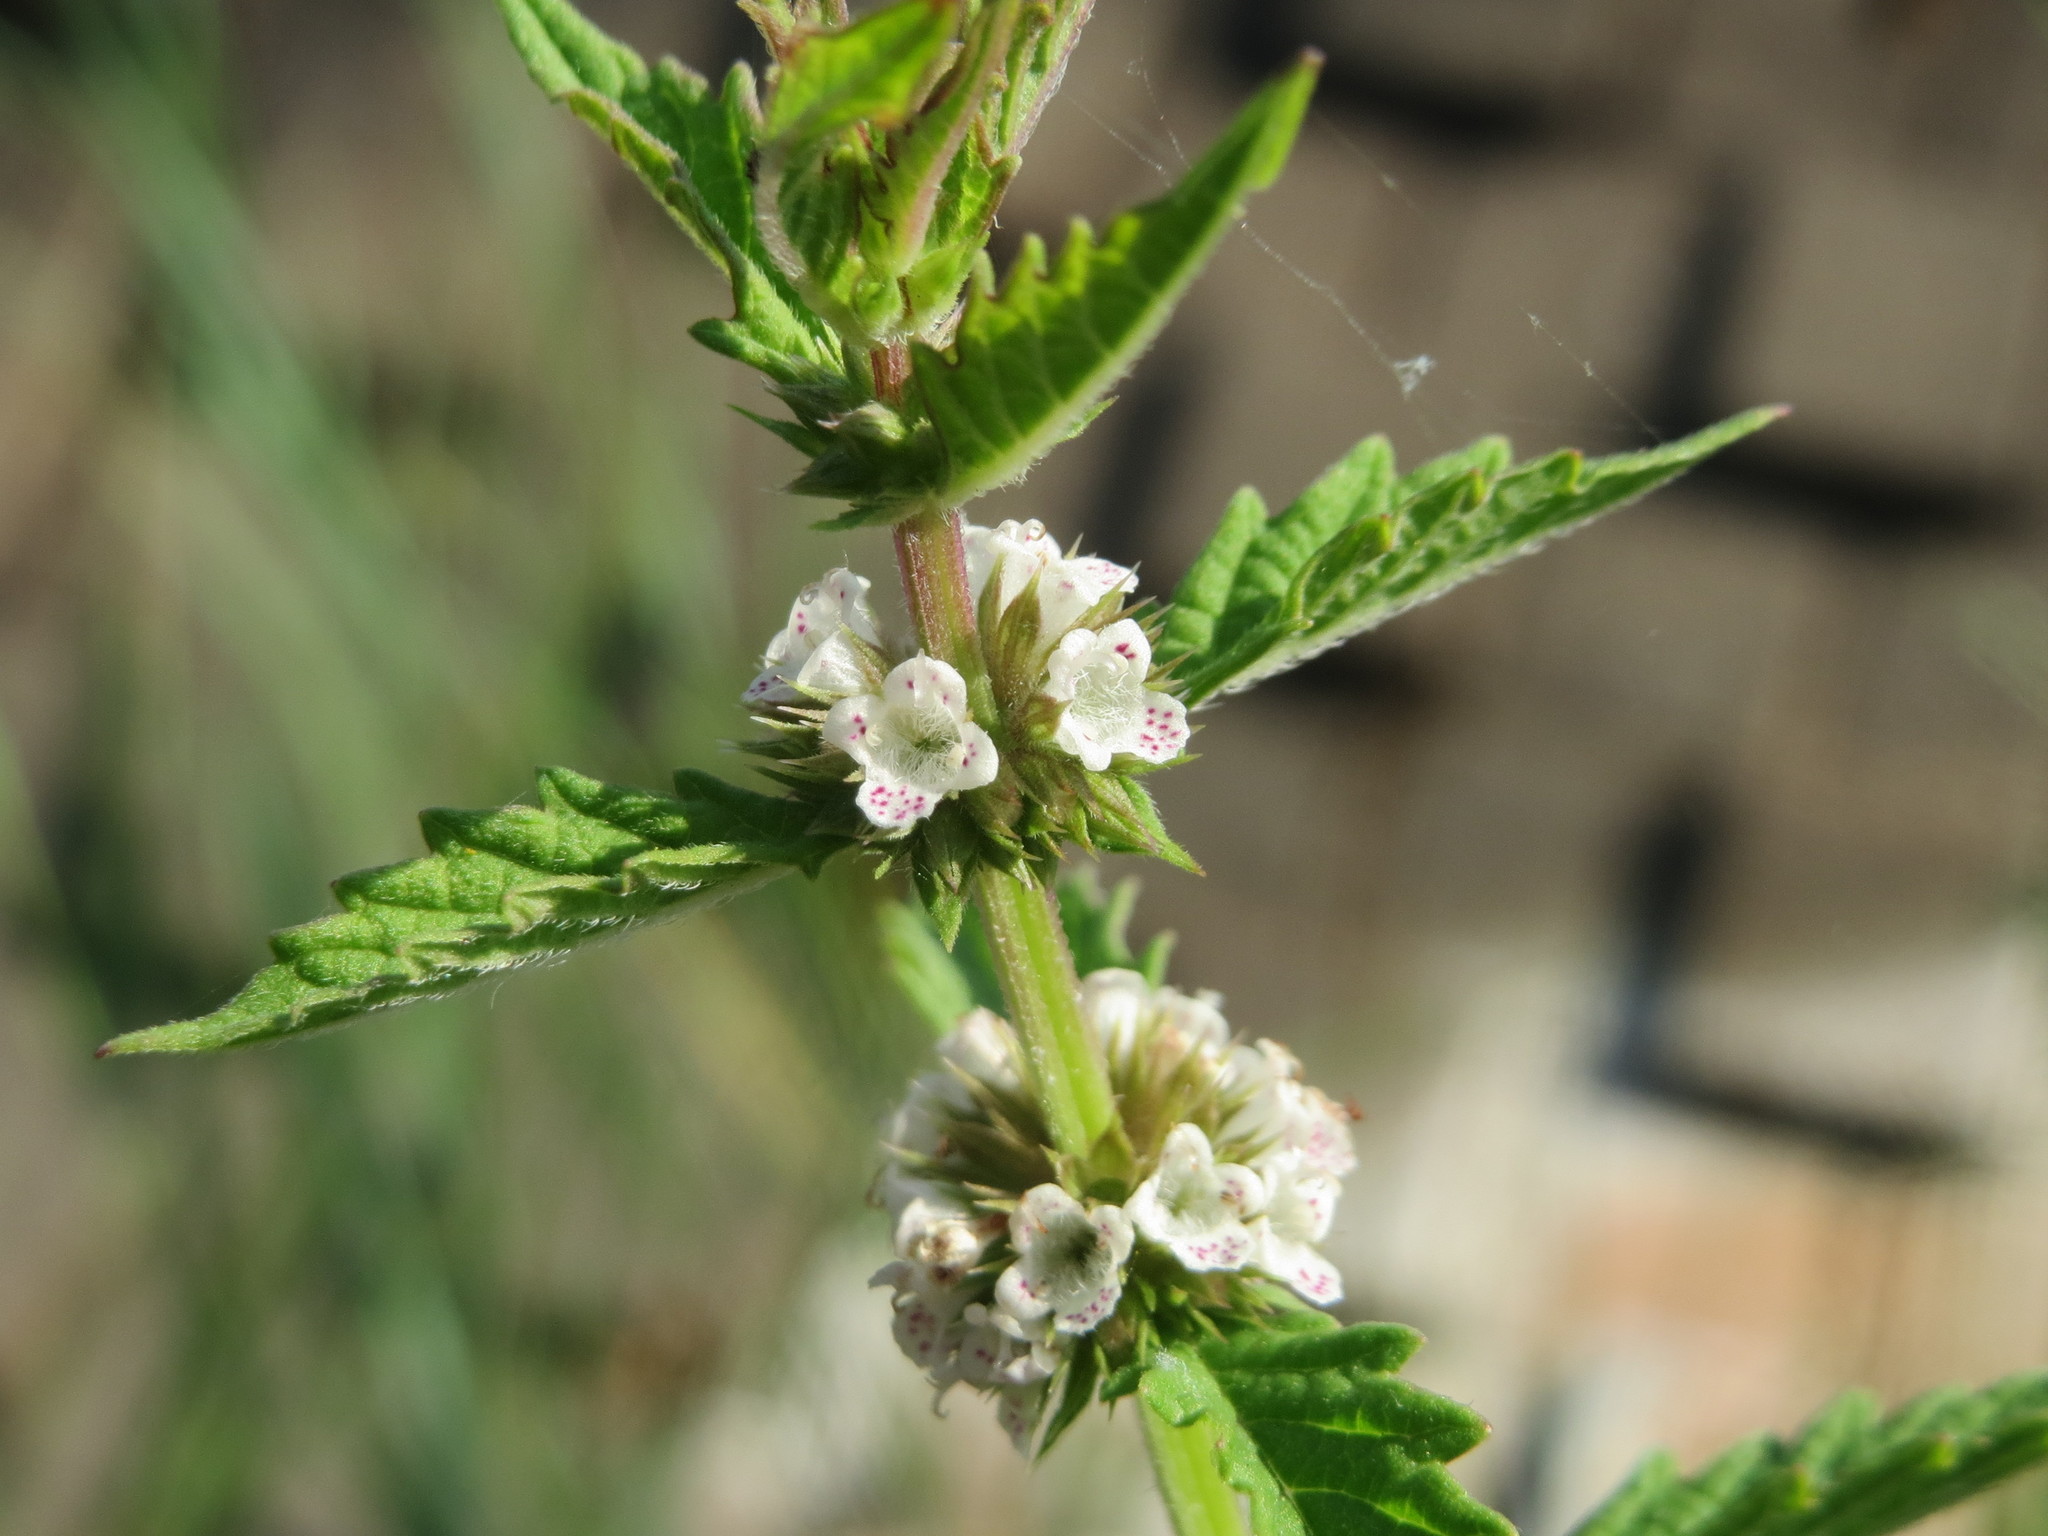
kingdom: Plantae
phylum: Tracheophyta
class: Magnoliopsida
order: Lamiales
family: Lamiaceae
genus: Lycopus
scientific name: Lycopus europaeus
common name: European bugleweed
